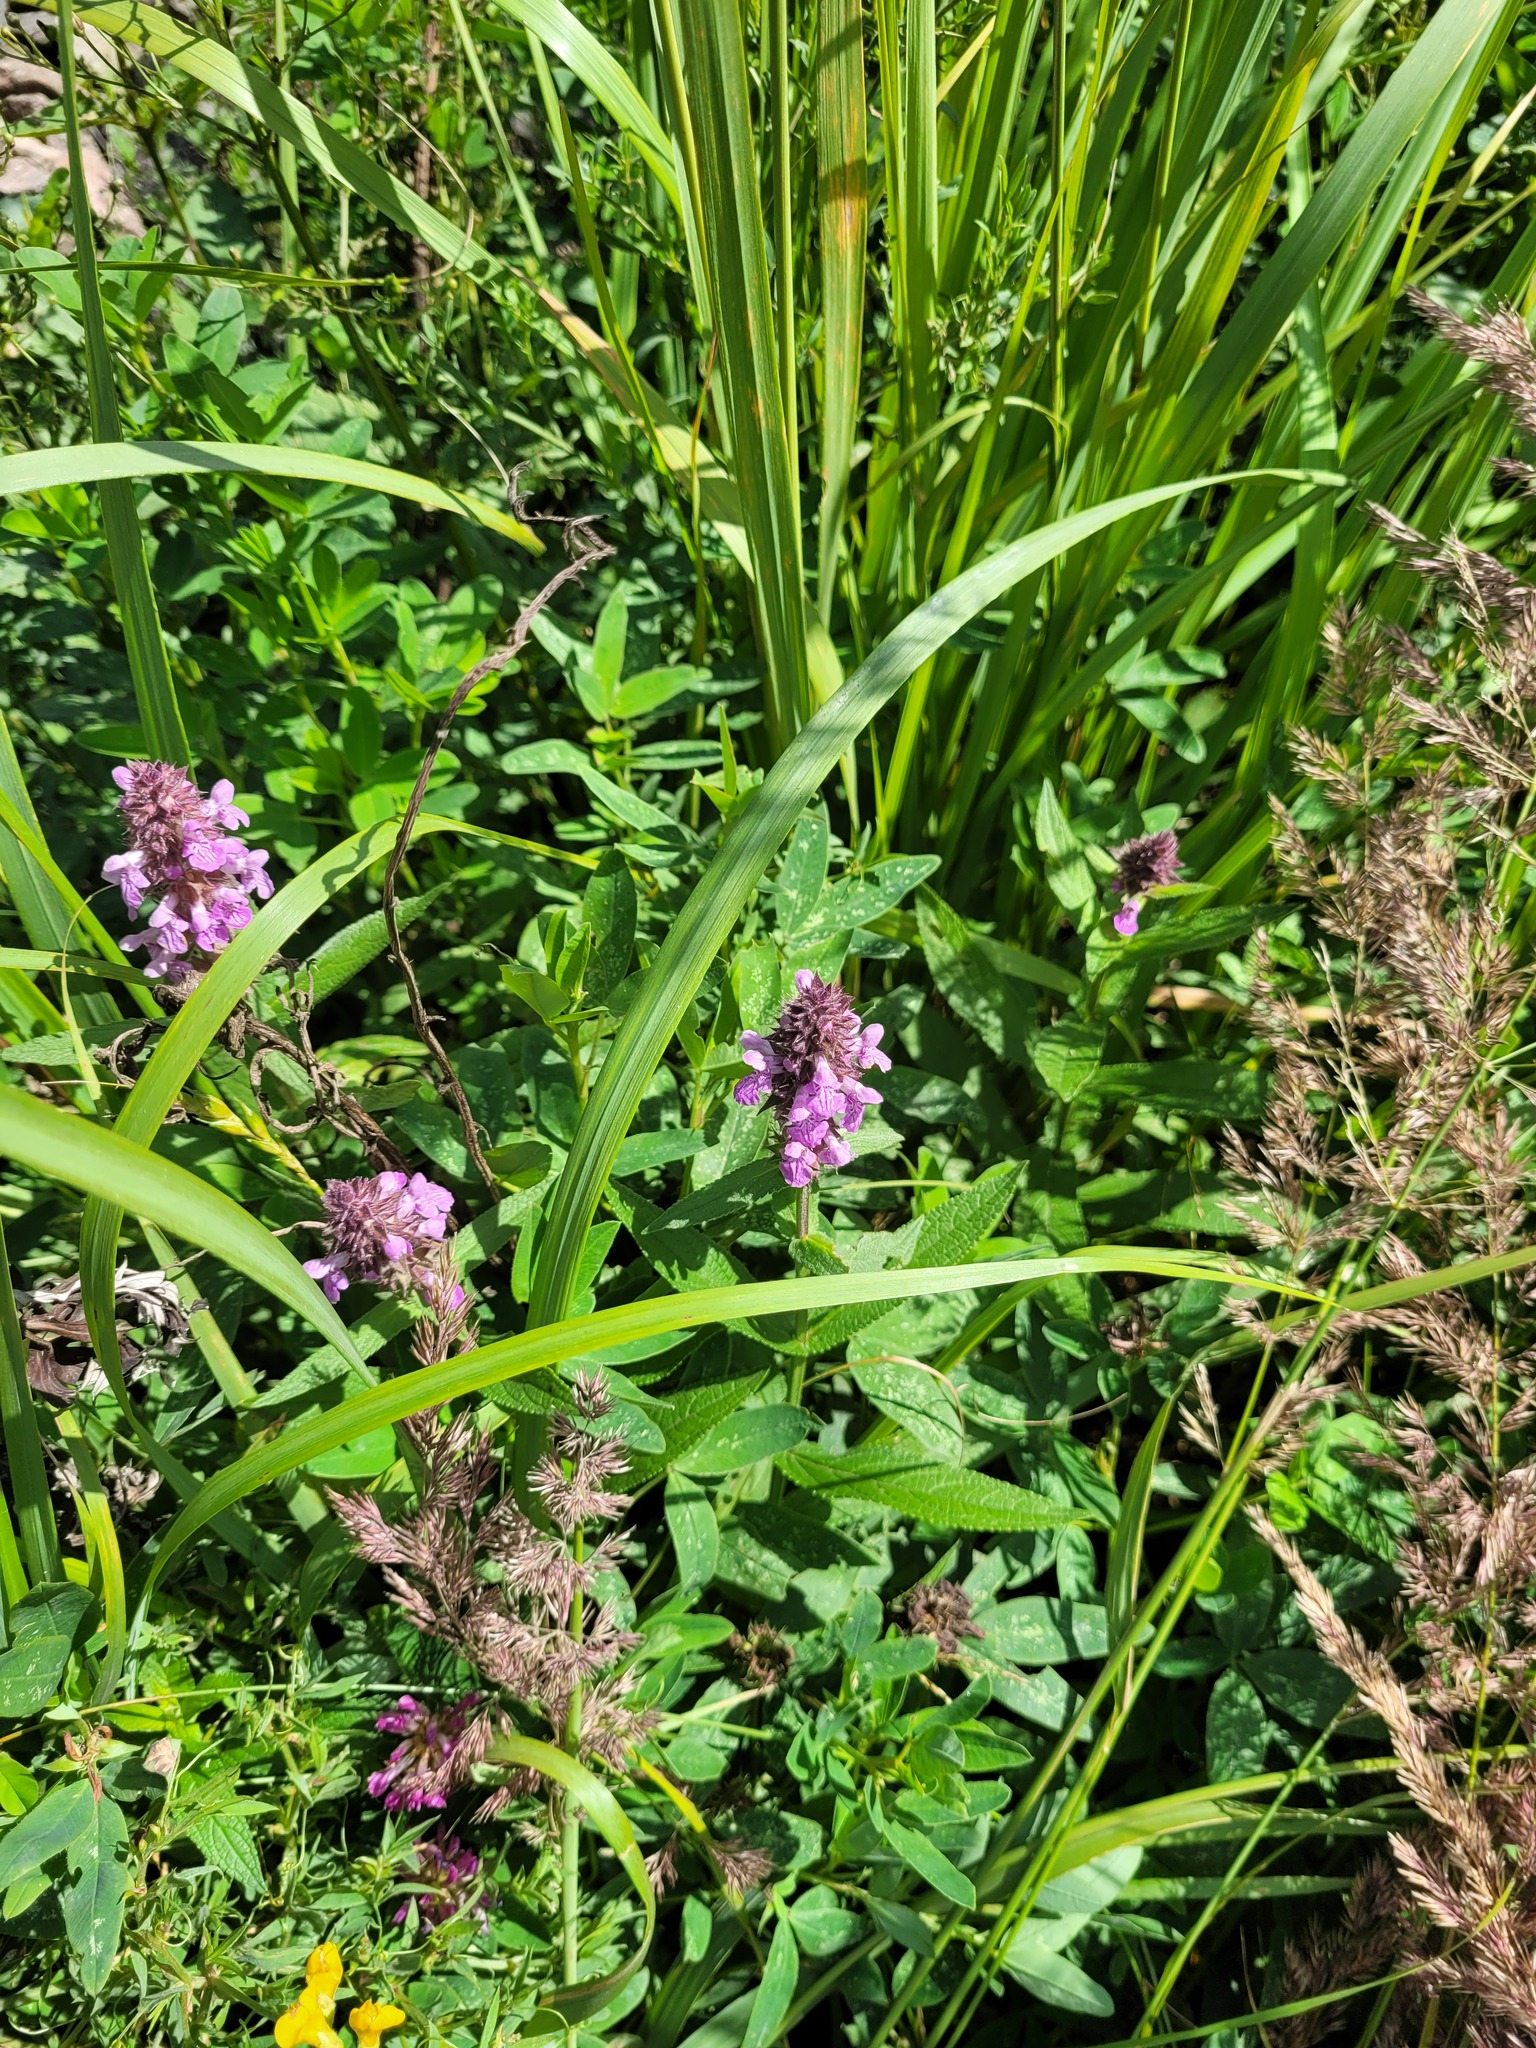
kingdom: Plantae
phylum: Tracheophyta
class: Magnoliopsida
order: Lamiales
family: Lamiaceae
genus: Stachys
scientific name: Stachys palustris
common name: Marsh woundwort
